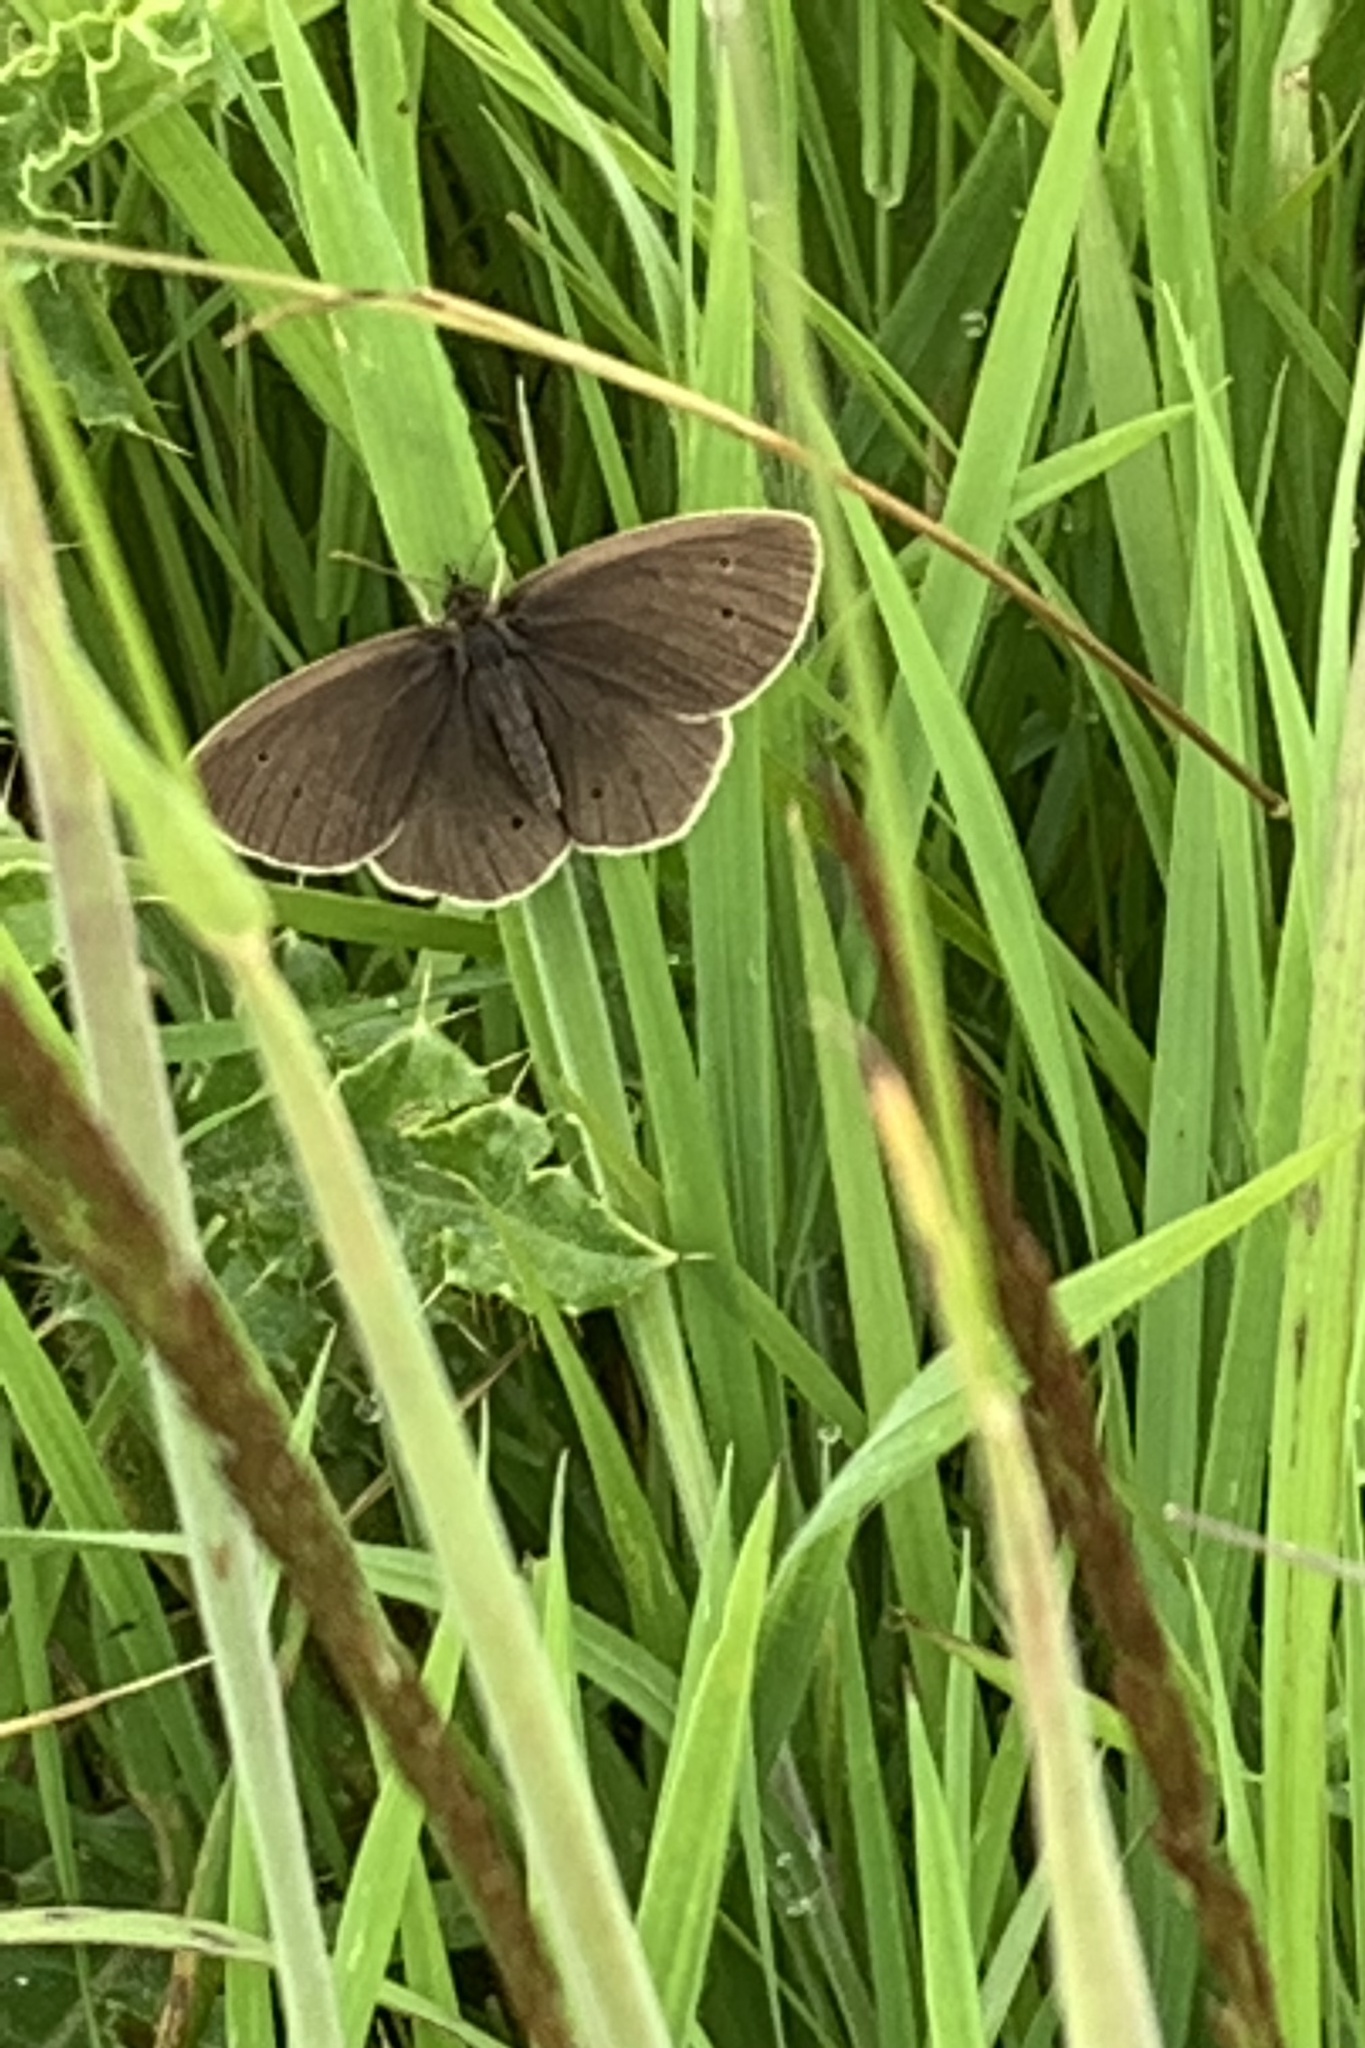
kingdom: Animalia
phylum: Arthropoda
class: Insecta
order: Lepidoptera
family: Nymphalidae
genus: Aphantopus
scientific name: Aphantopus hyperantus
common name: Ringlet
